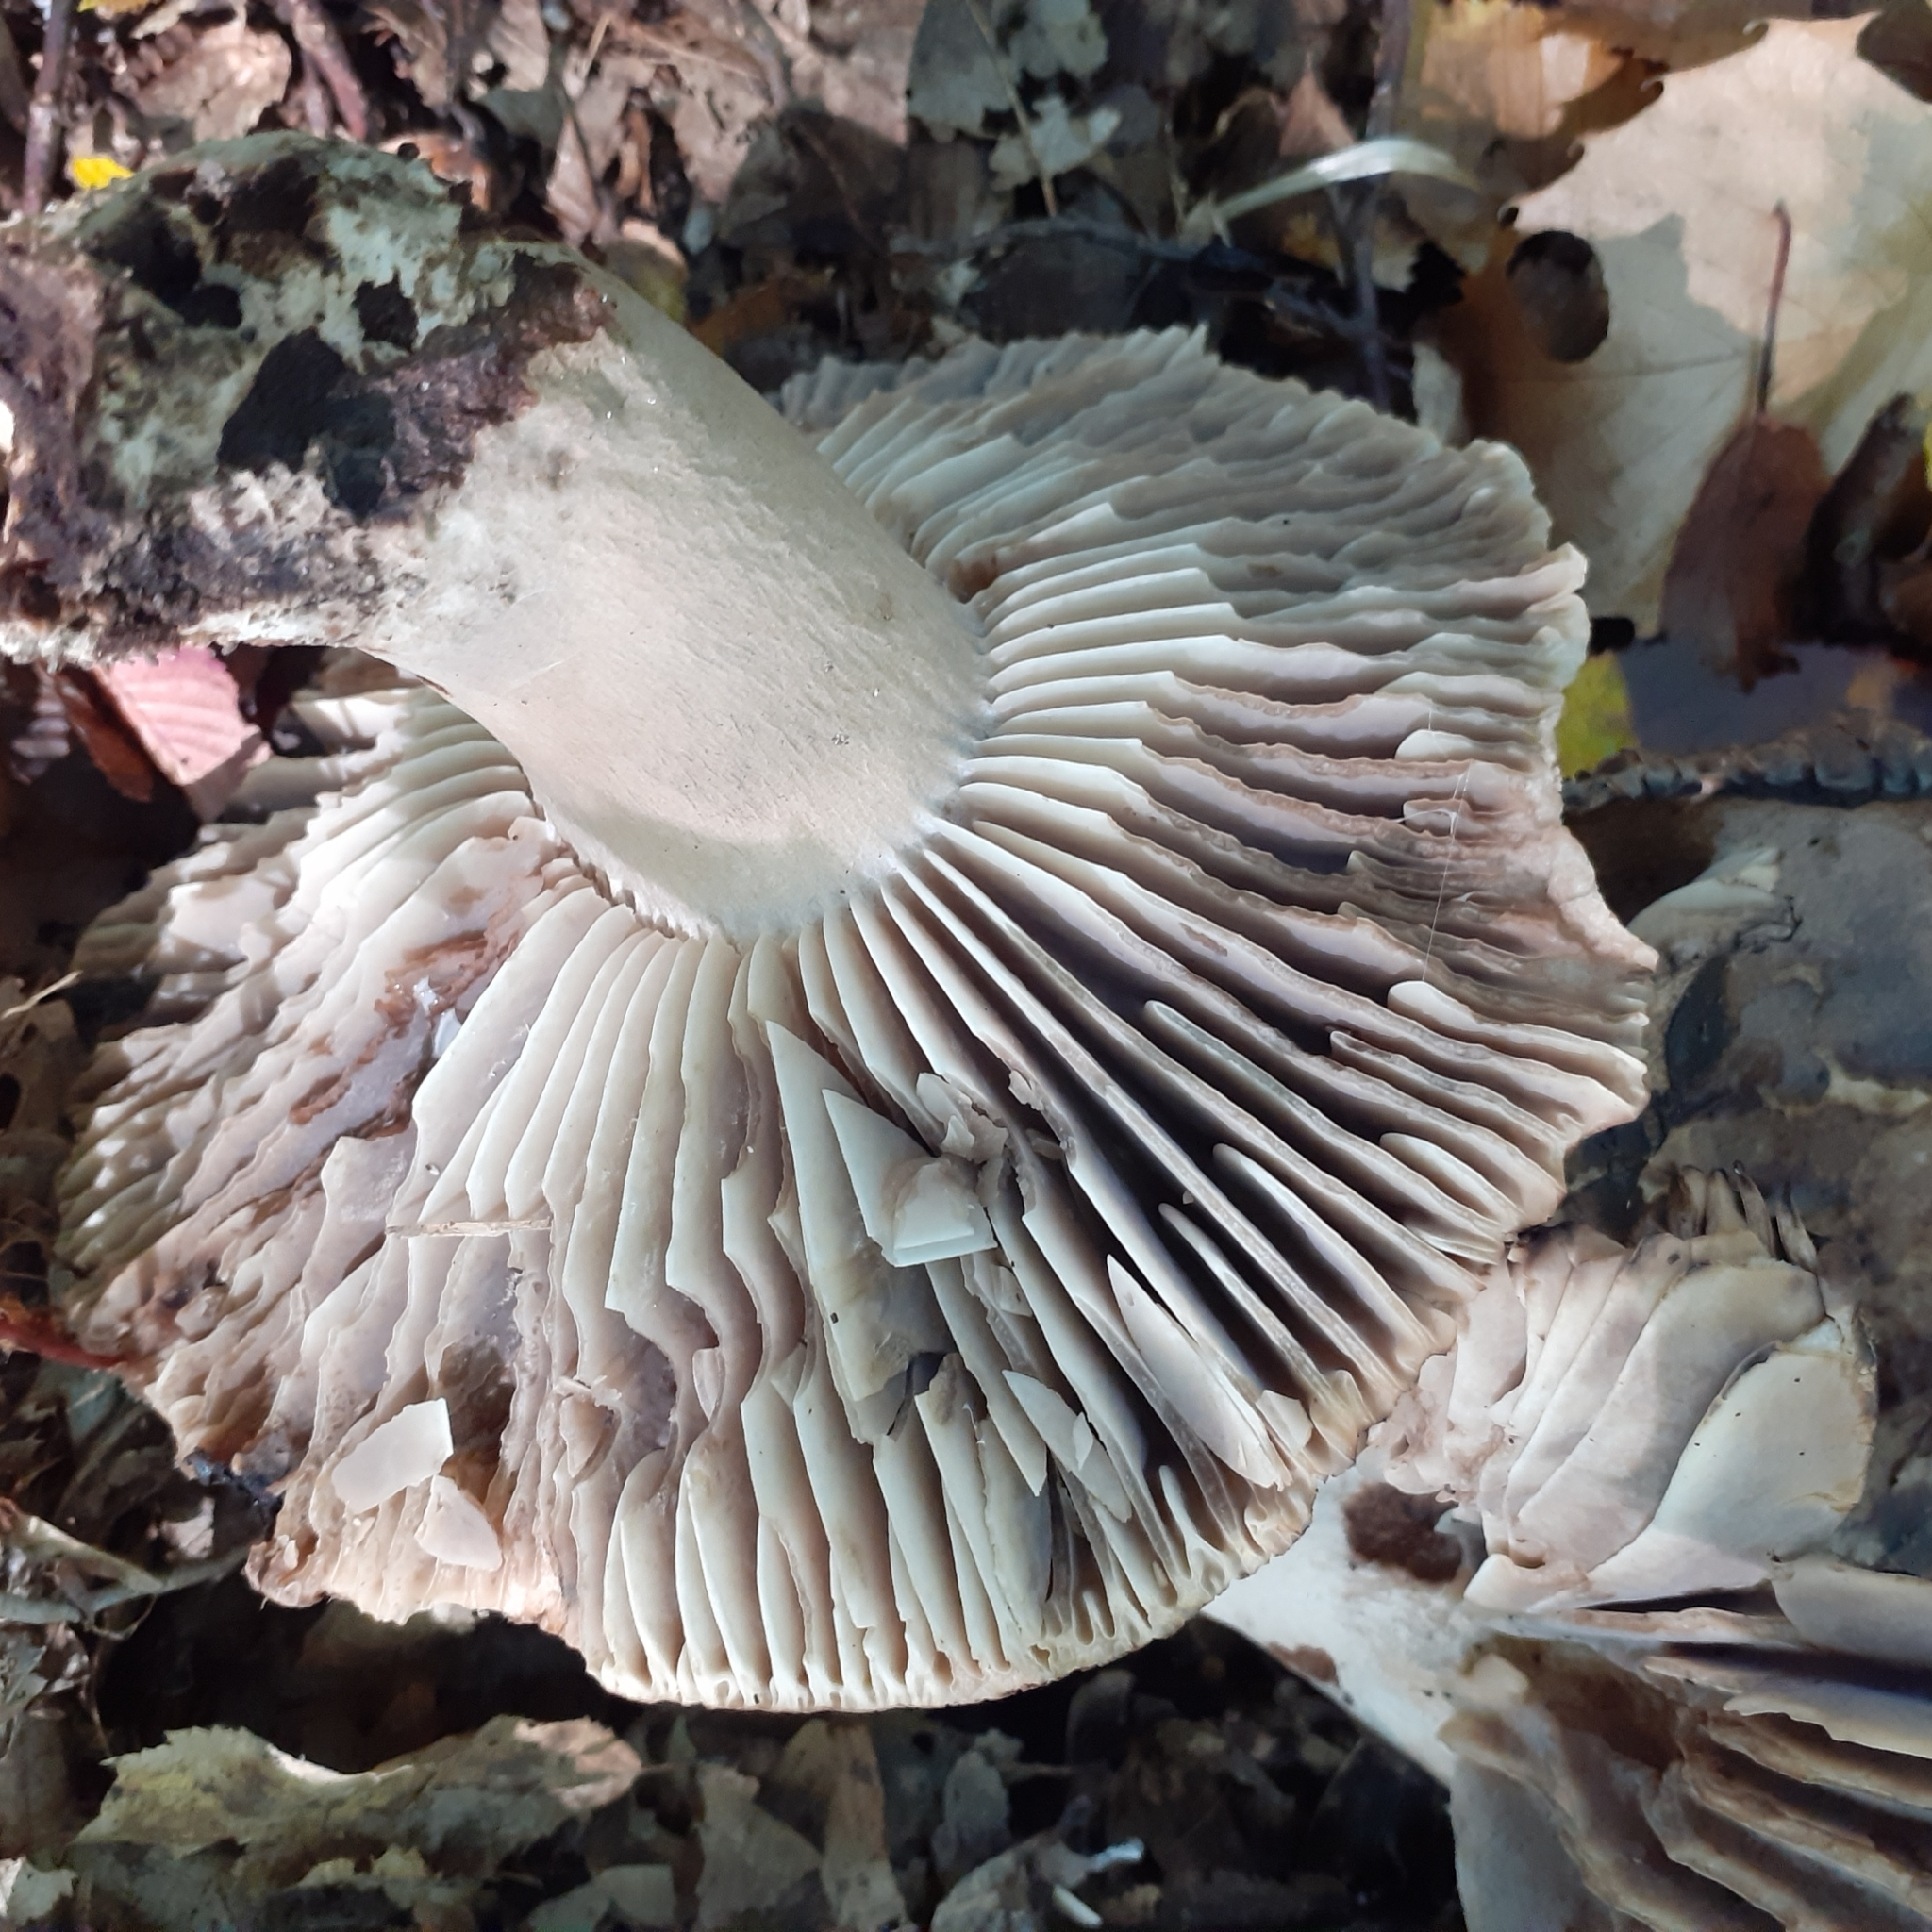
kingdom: Fungi
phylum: Basidiomycota
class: Agaricomycetes
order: Russulales
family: Russulaceae
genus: Russula
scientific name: Russula adusta
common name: Winecork brittlegill
